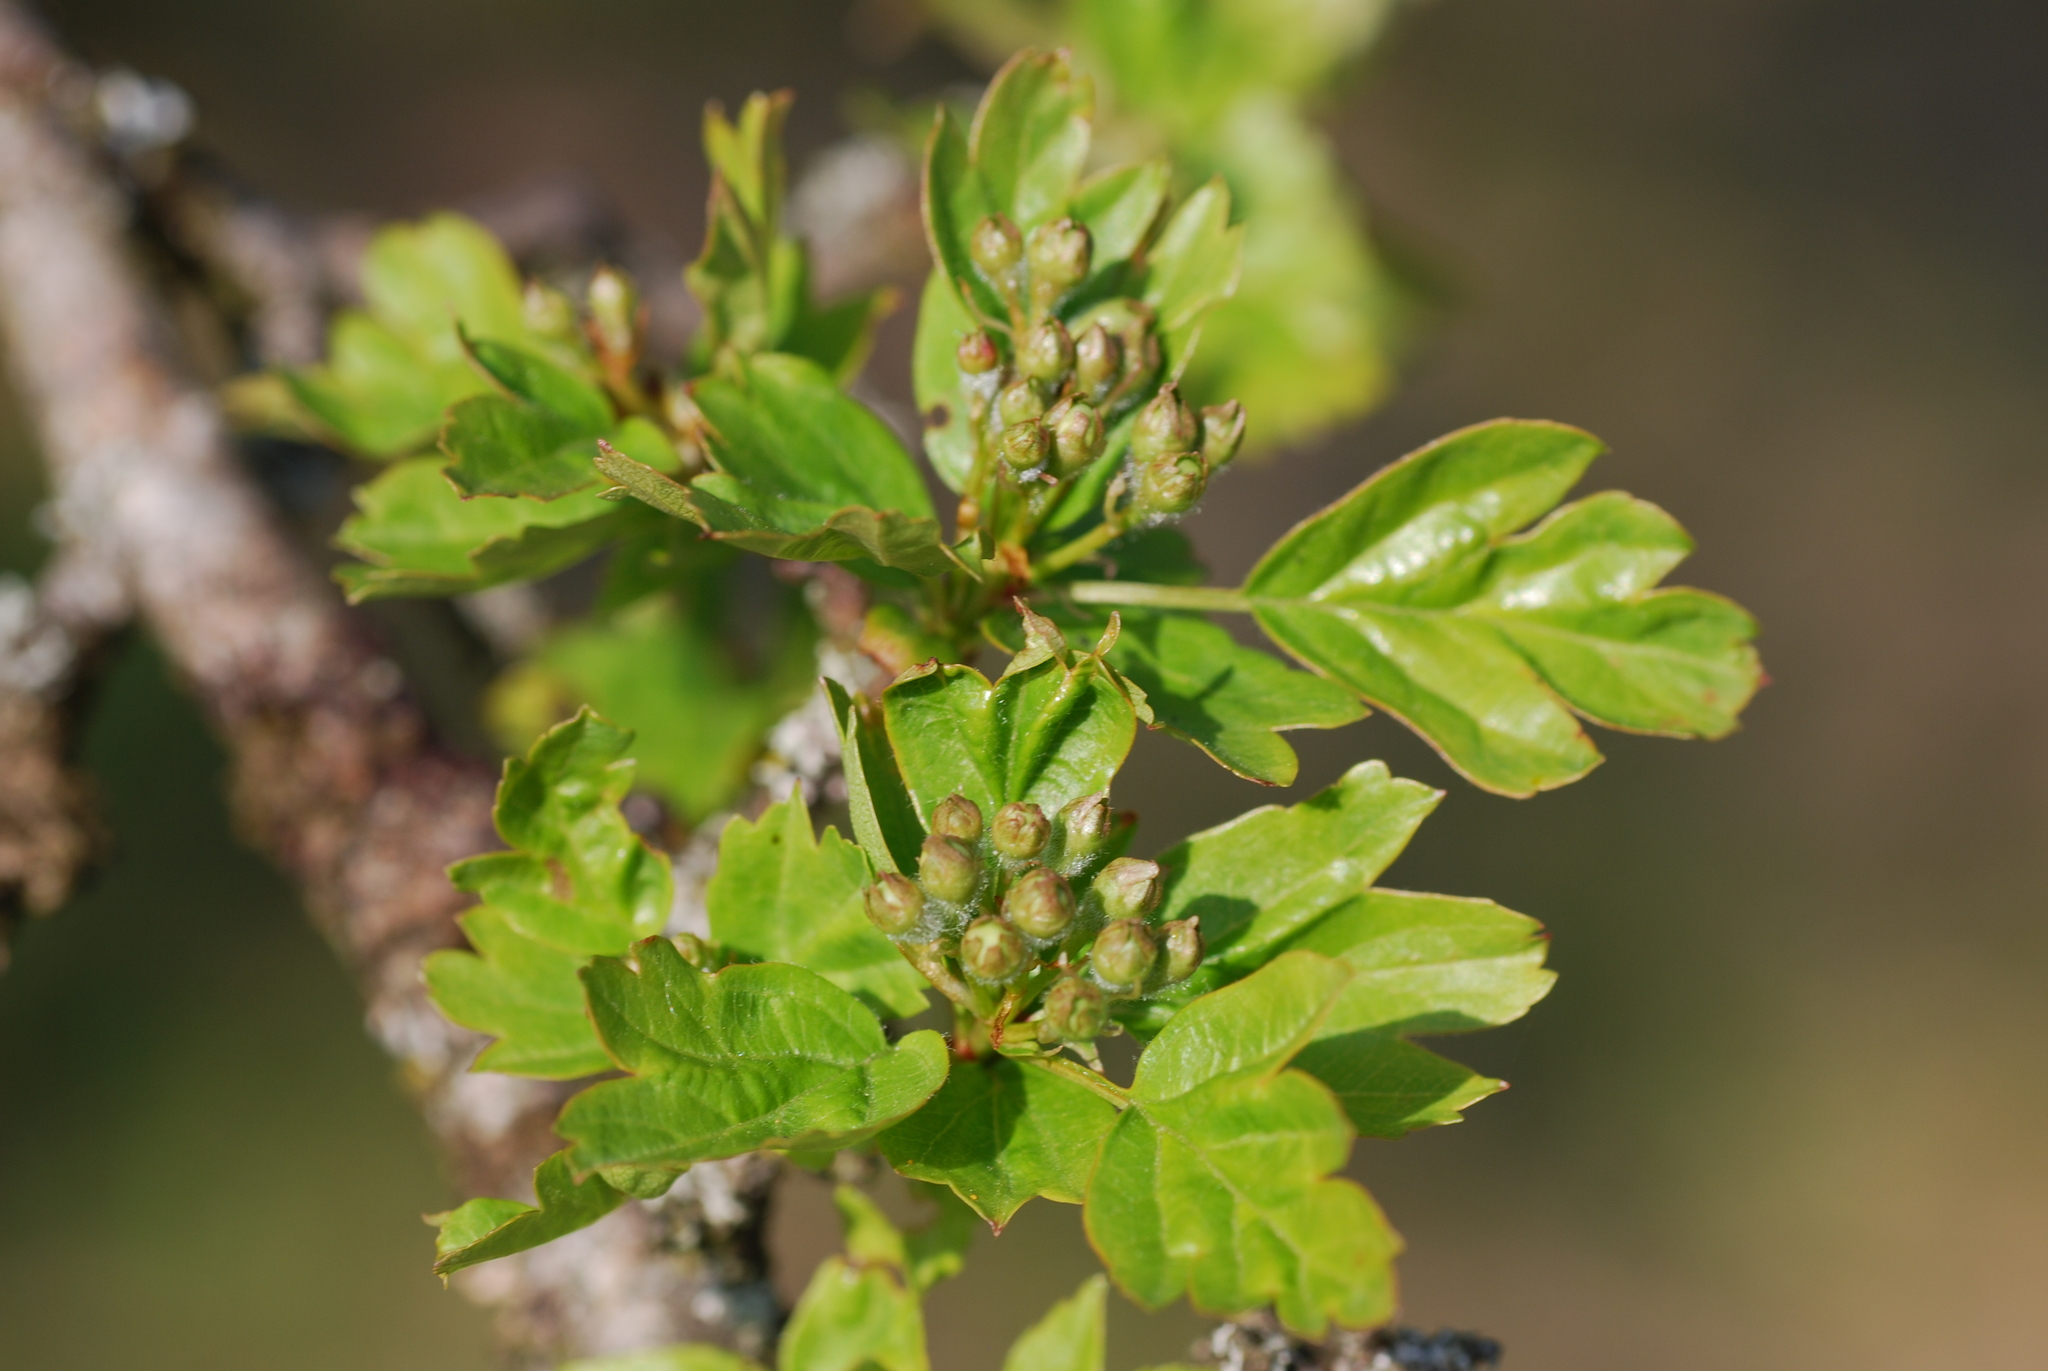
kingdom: Plantae
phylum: Tracheophyta
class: Magnoliopsida
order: Rosales
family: Rosaceae
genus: Crataegus
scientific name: Crataegus monogyna
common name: Hawthorn
